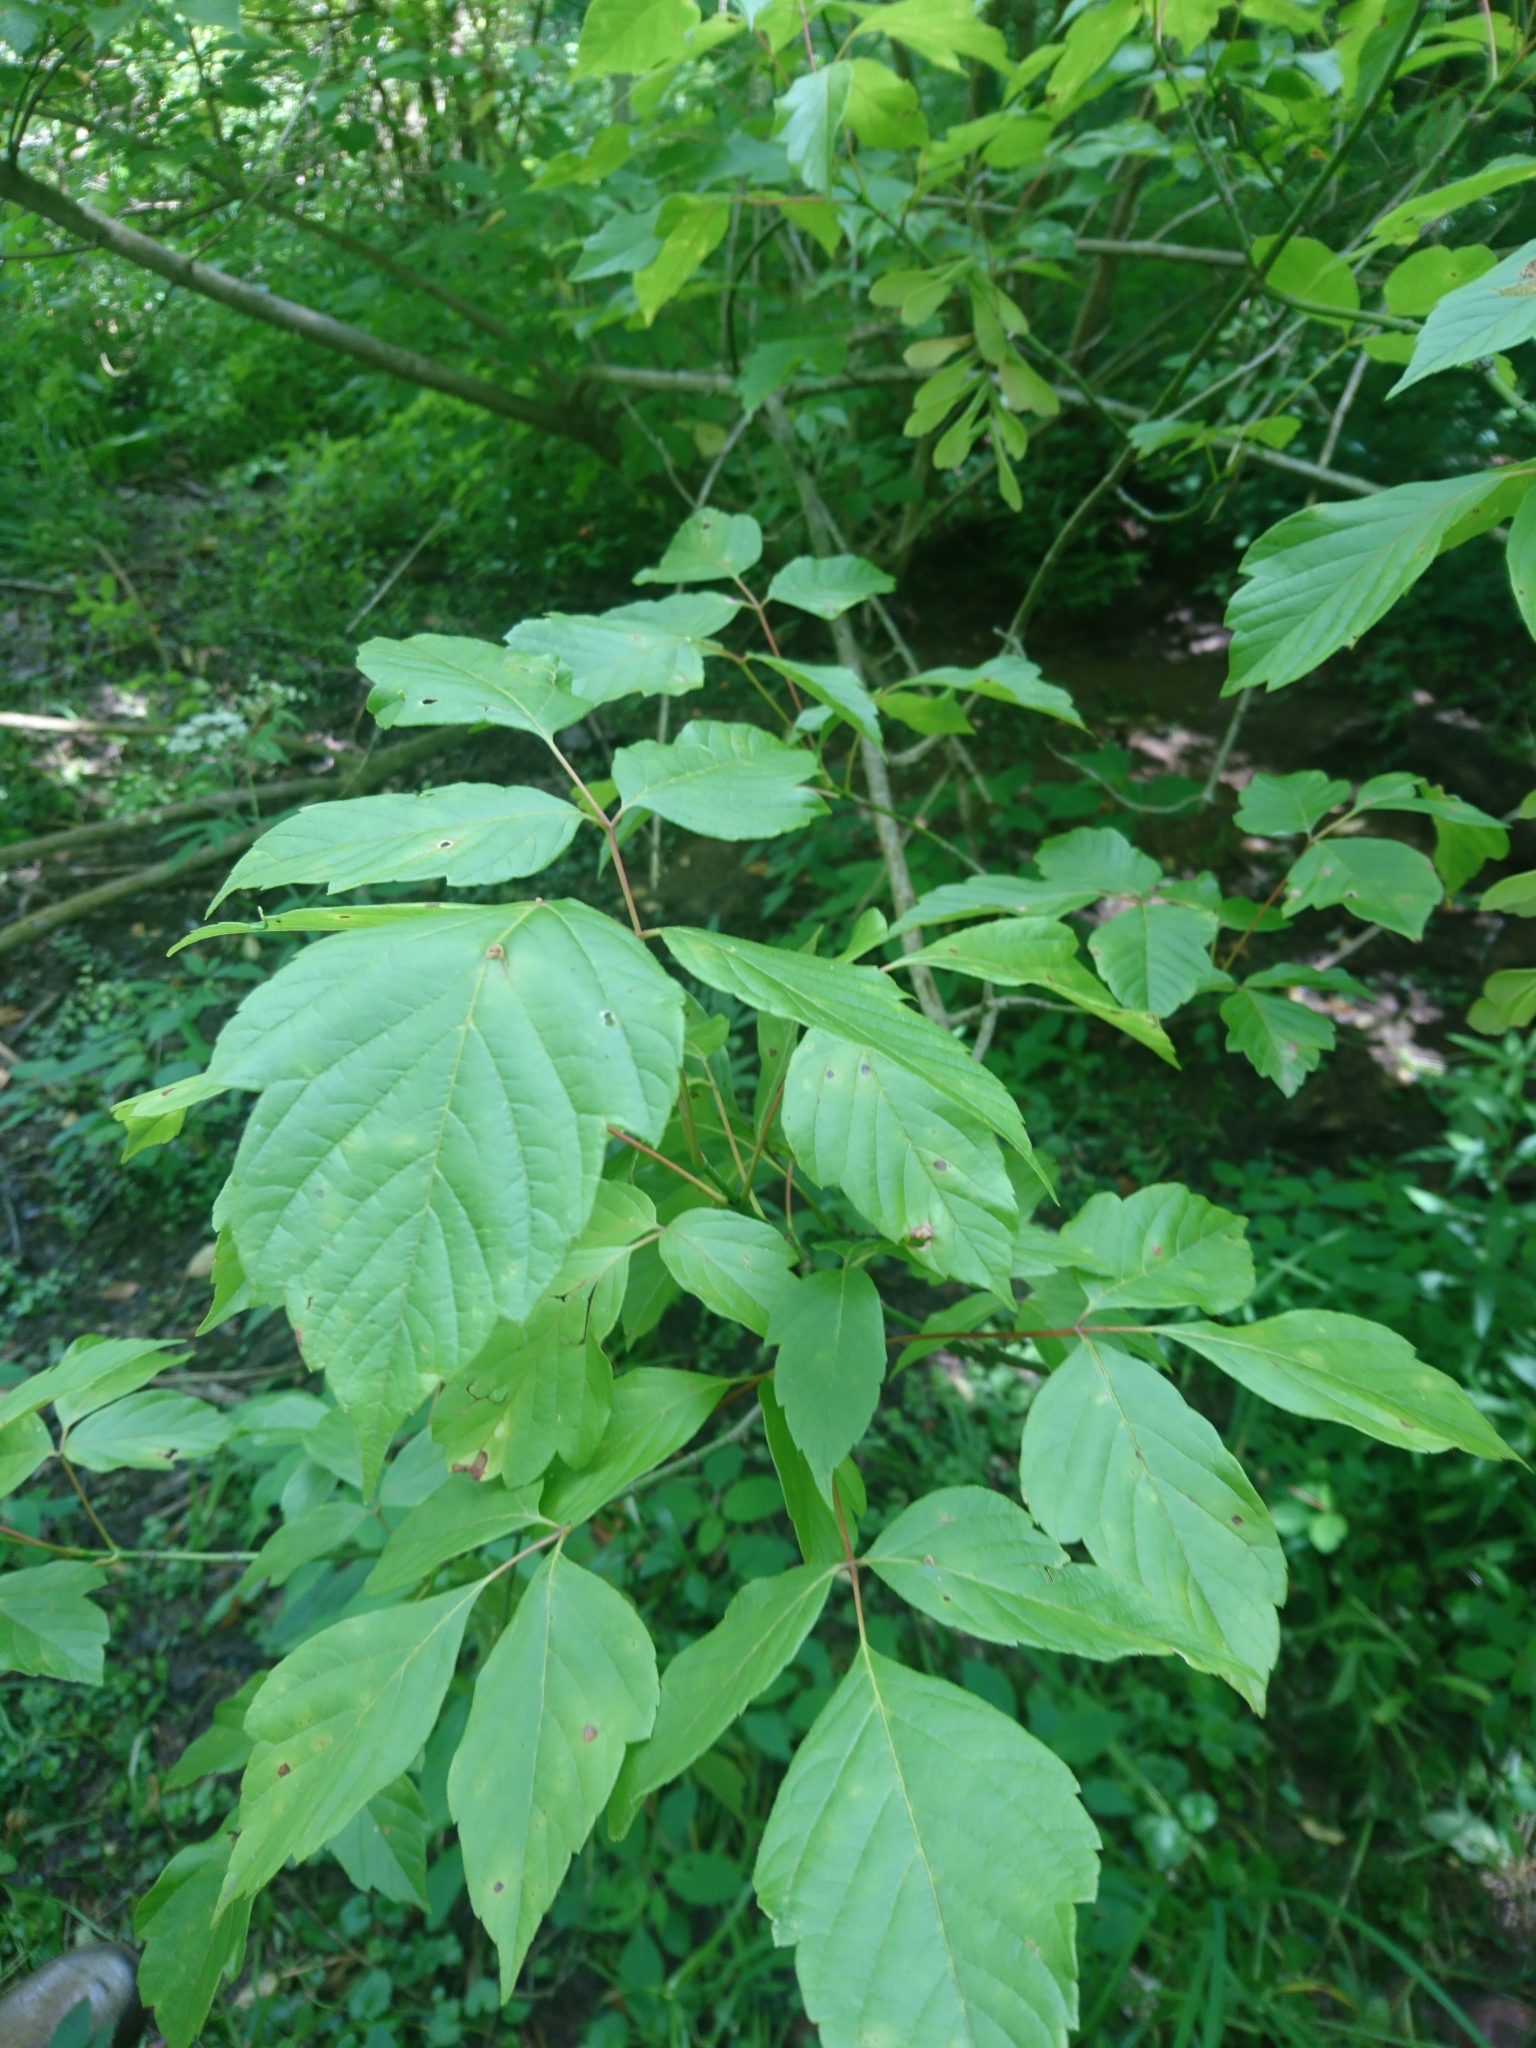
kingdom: Plantae
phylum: Tracheophyta
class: Magnoliopsida
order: Sapindales
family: Sapindaceae
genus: Acer
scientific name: Acer negundo
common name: Ashleaf maple
